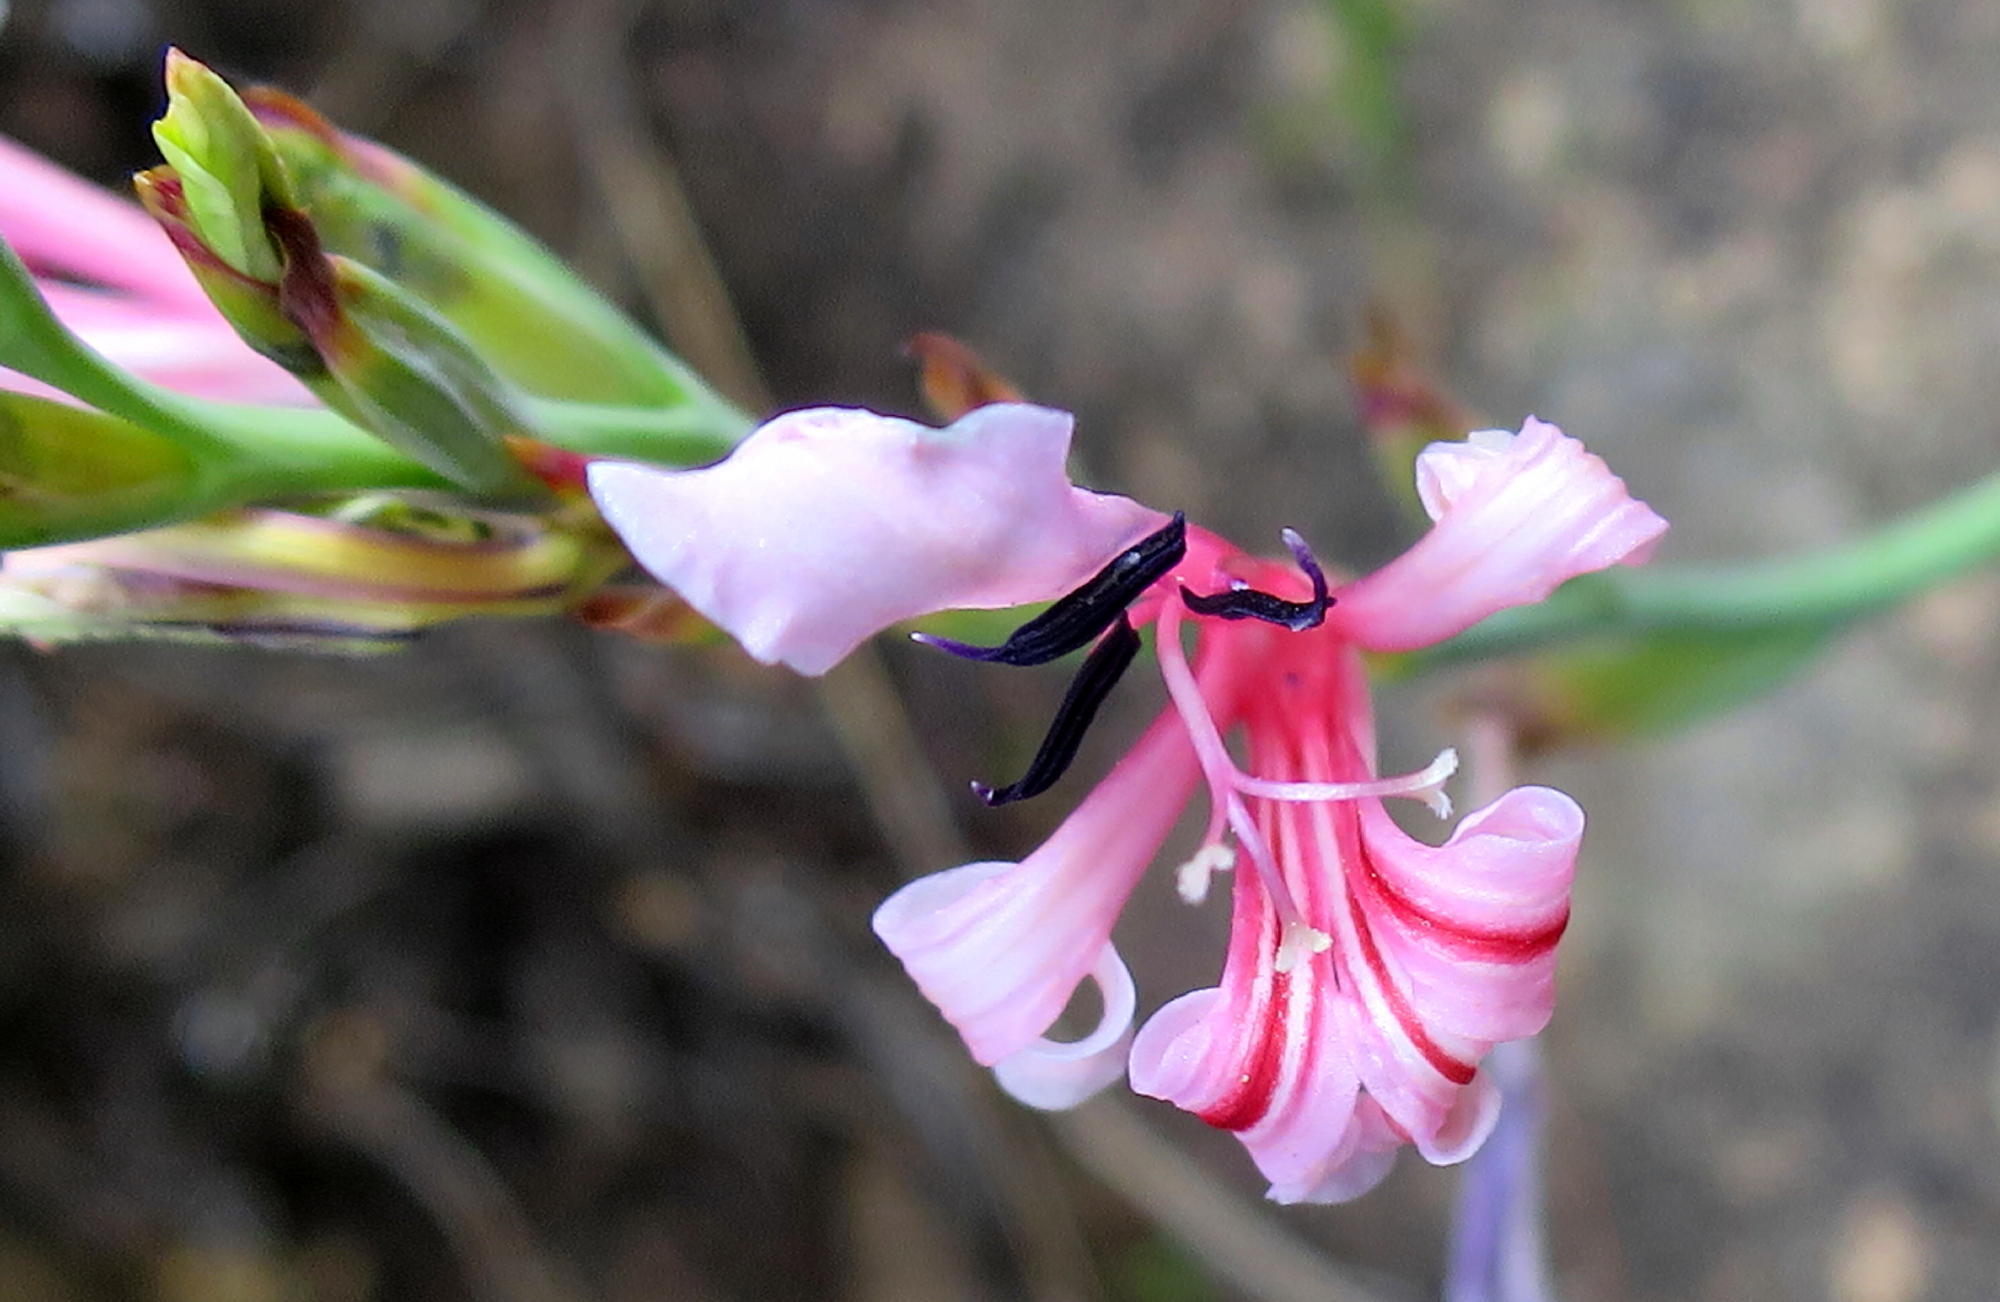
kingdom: Plantae
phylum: Tracheophyta
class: Liliopsida
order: Asparagales
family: Iridaceae
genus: Tritoniopsis
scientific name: Tritoniopsis ramosa
